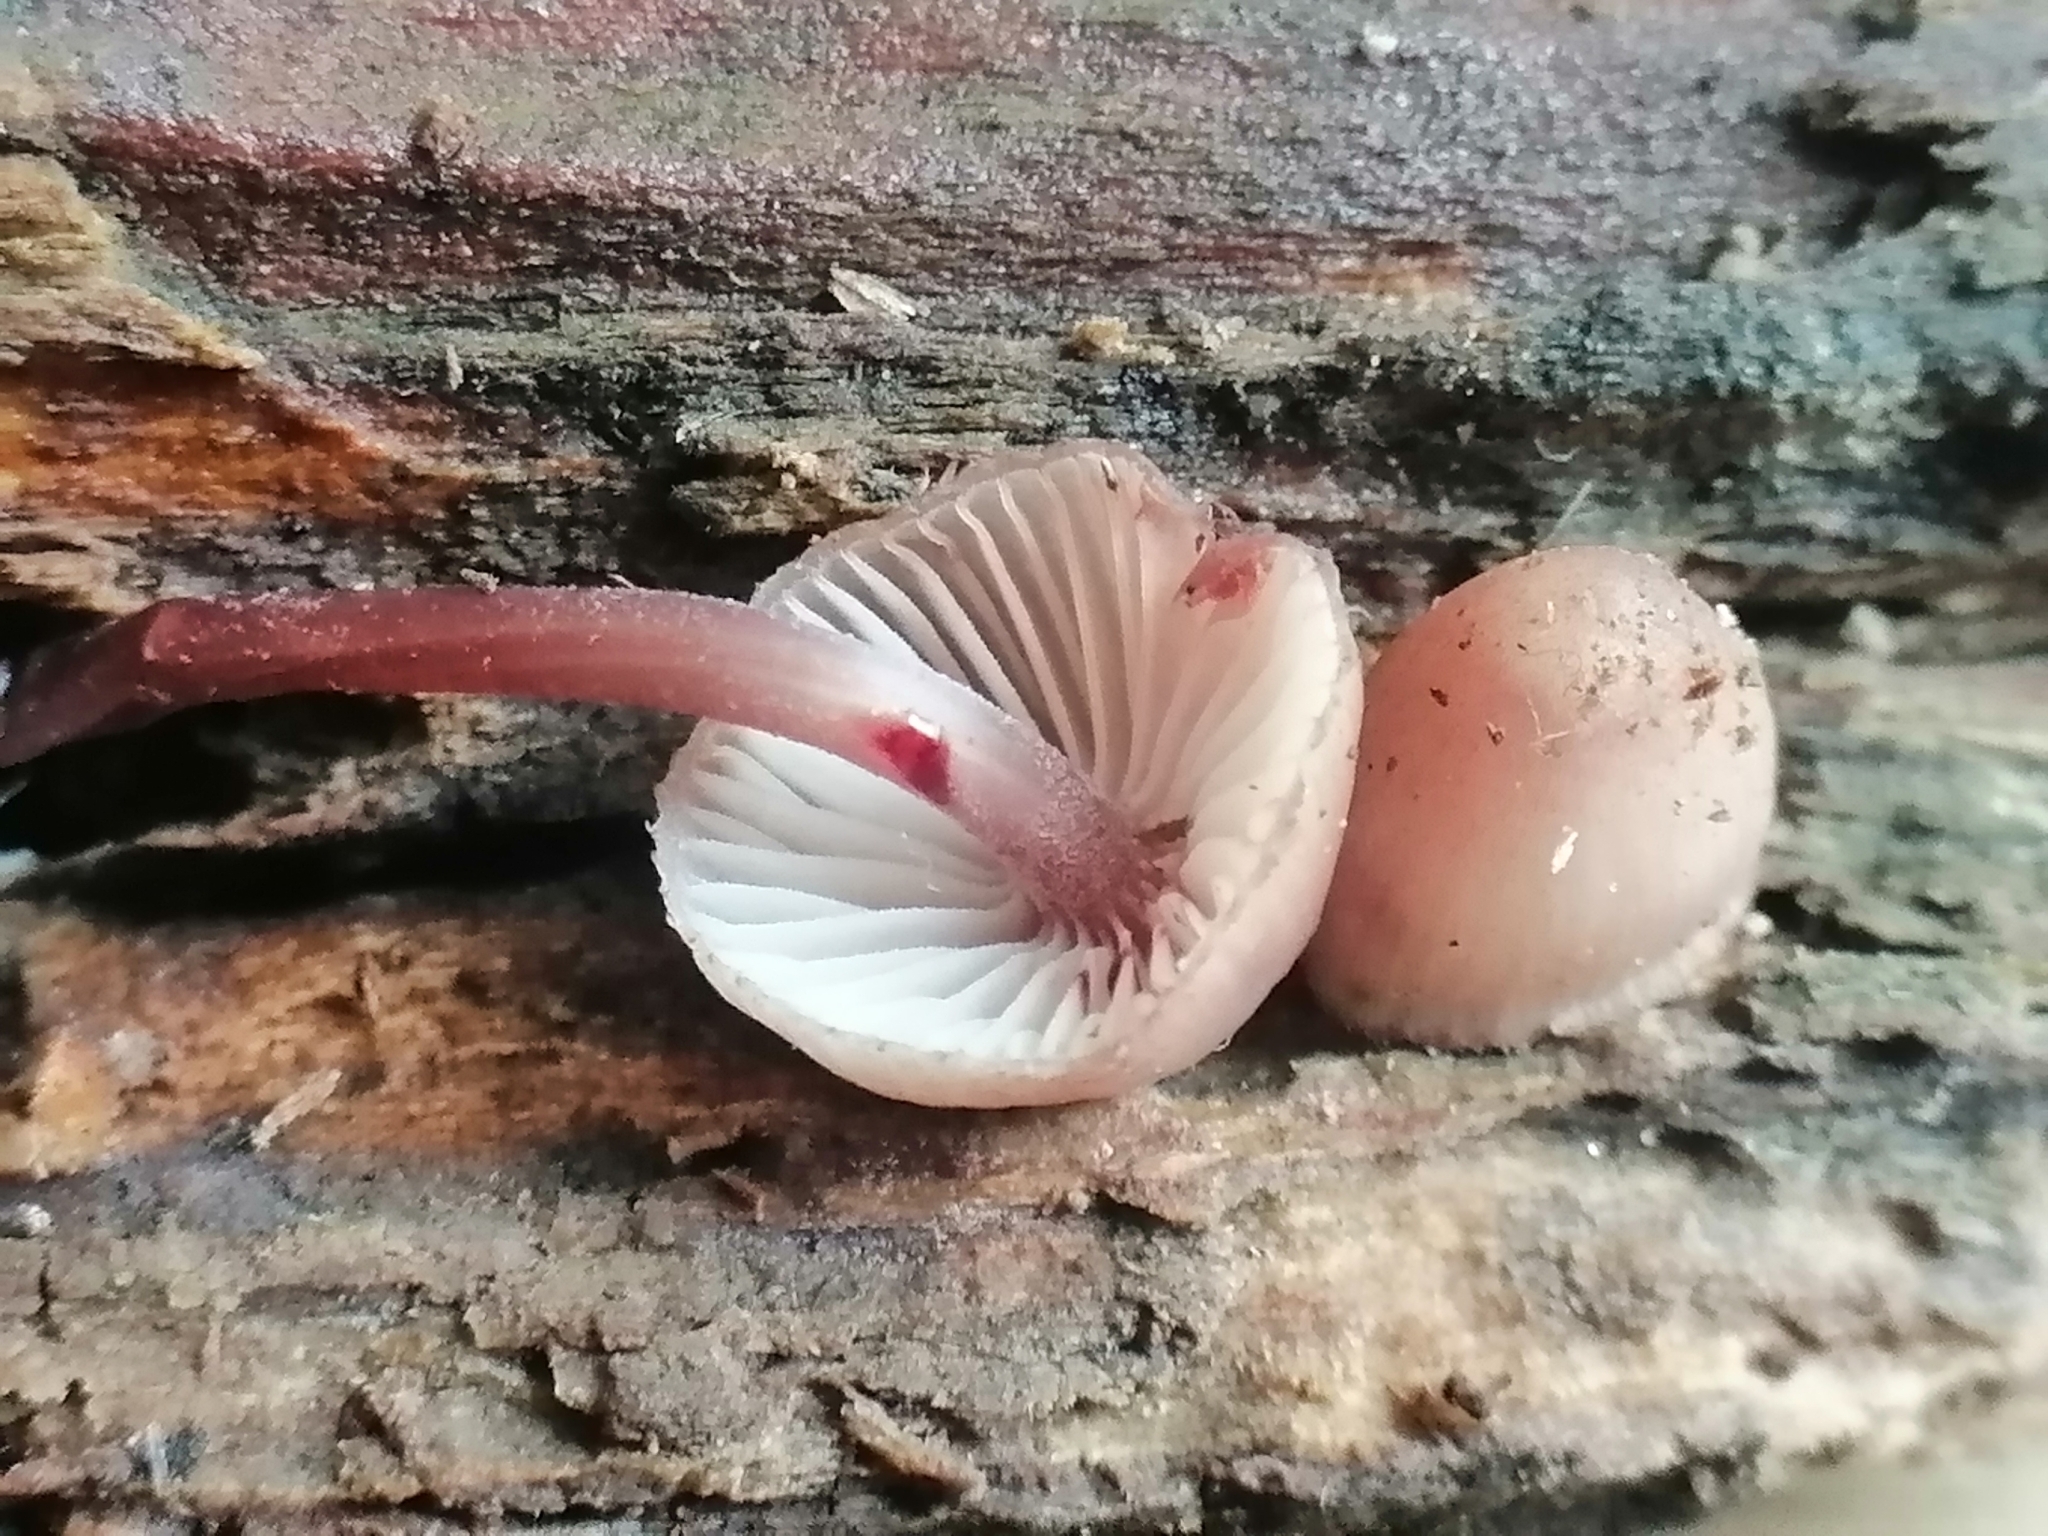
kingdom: Fungi
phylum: Basidiomycota
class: Agaricomycetes
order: Agaricales
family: Mycenaceae
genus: Mycena
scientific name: Mycena haematopus
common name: Burgundydrop bonnet
